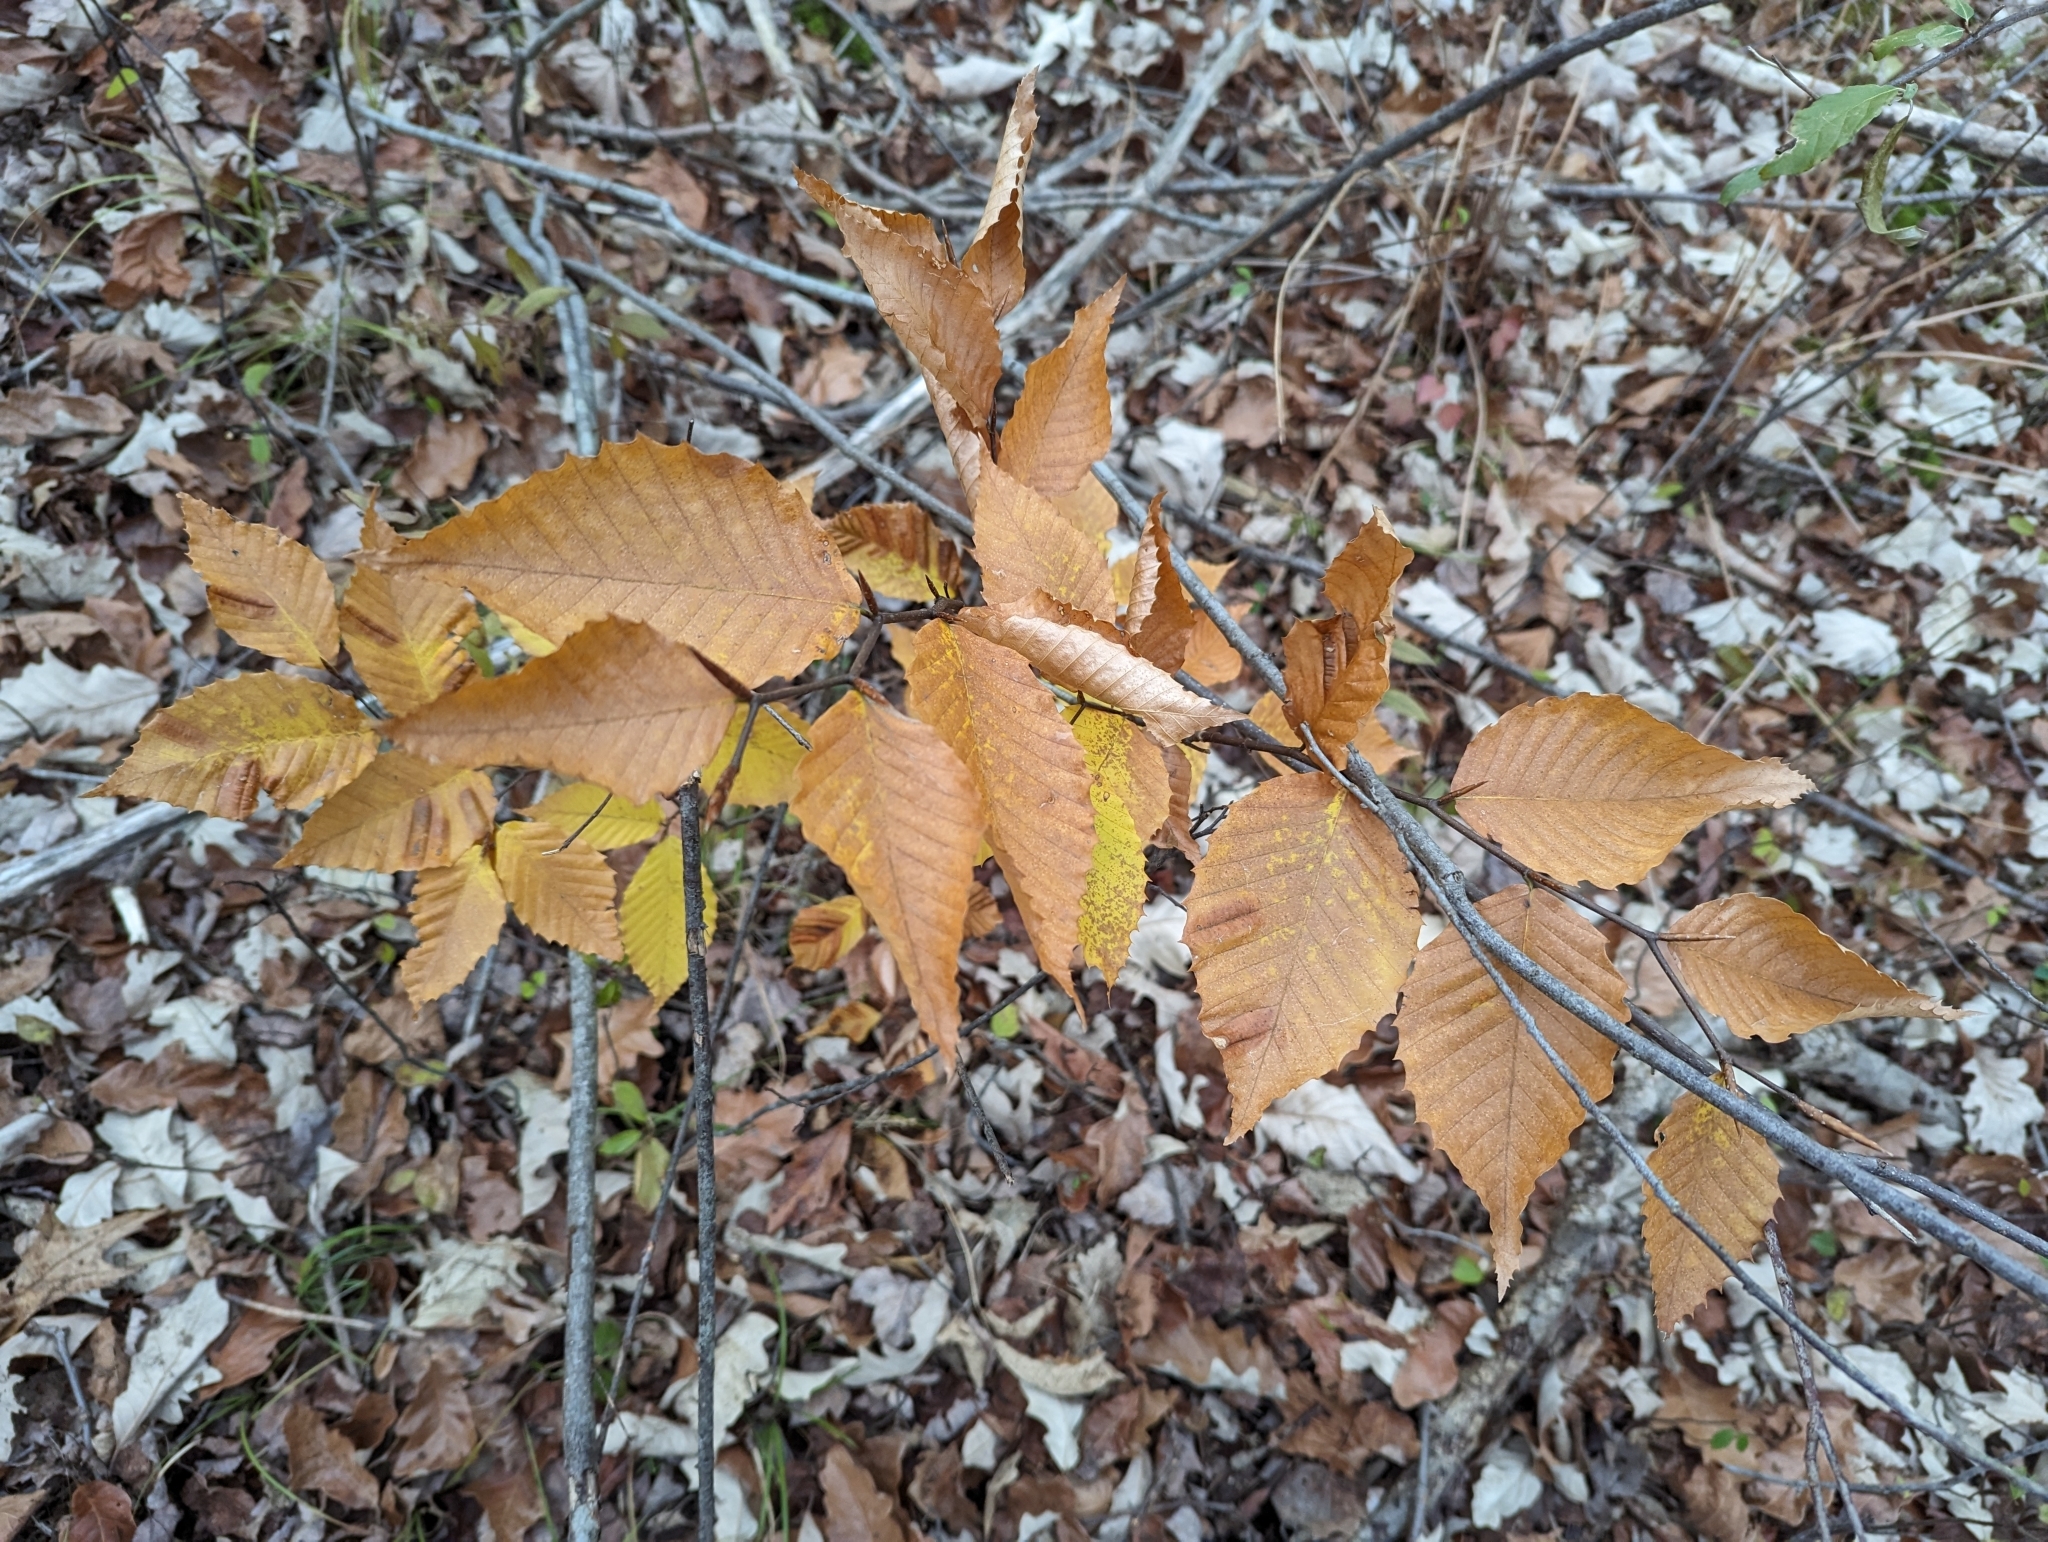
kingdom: Plantae
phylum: Tracheophyta
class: Magnoliopsida
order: Fagales
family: Fagaceae
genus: Fagus
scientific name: Fagus grandifolia
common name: American beech
